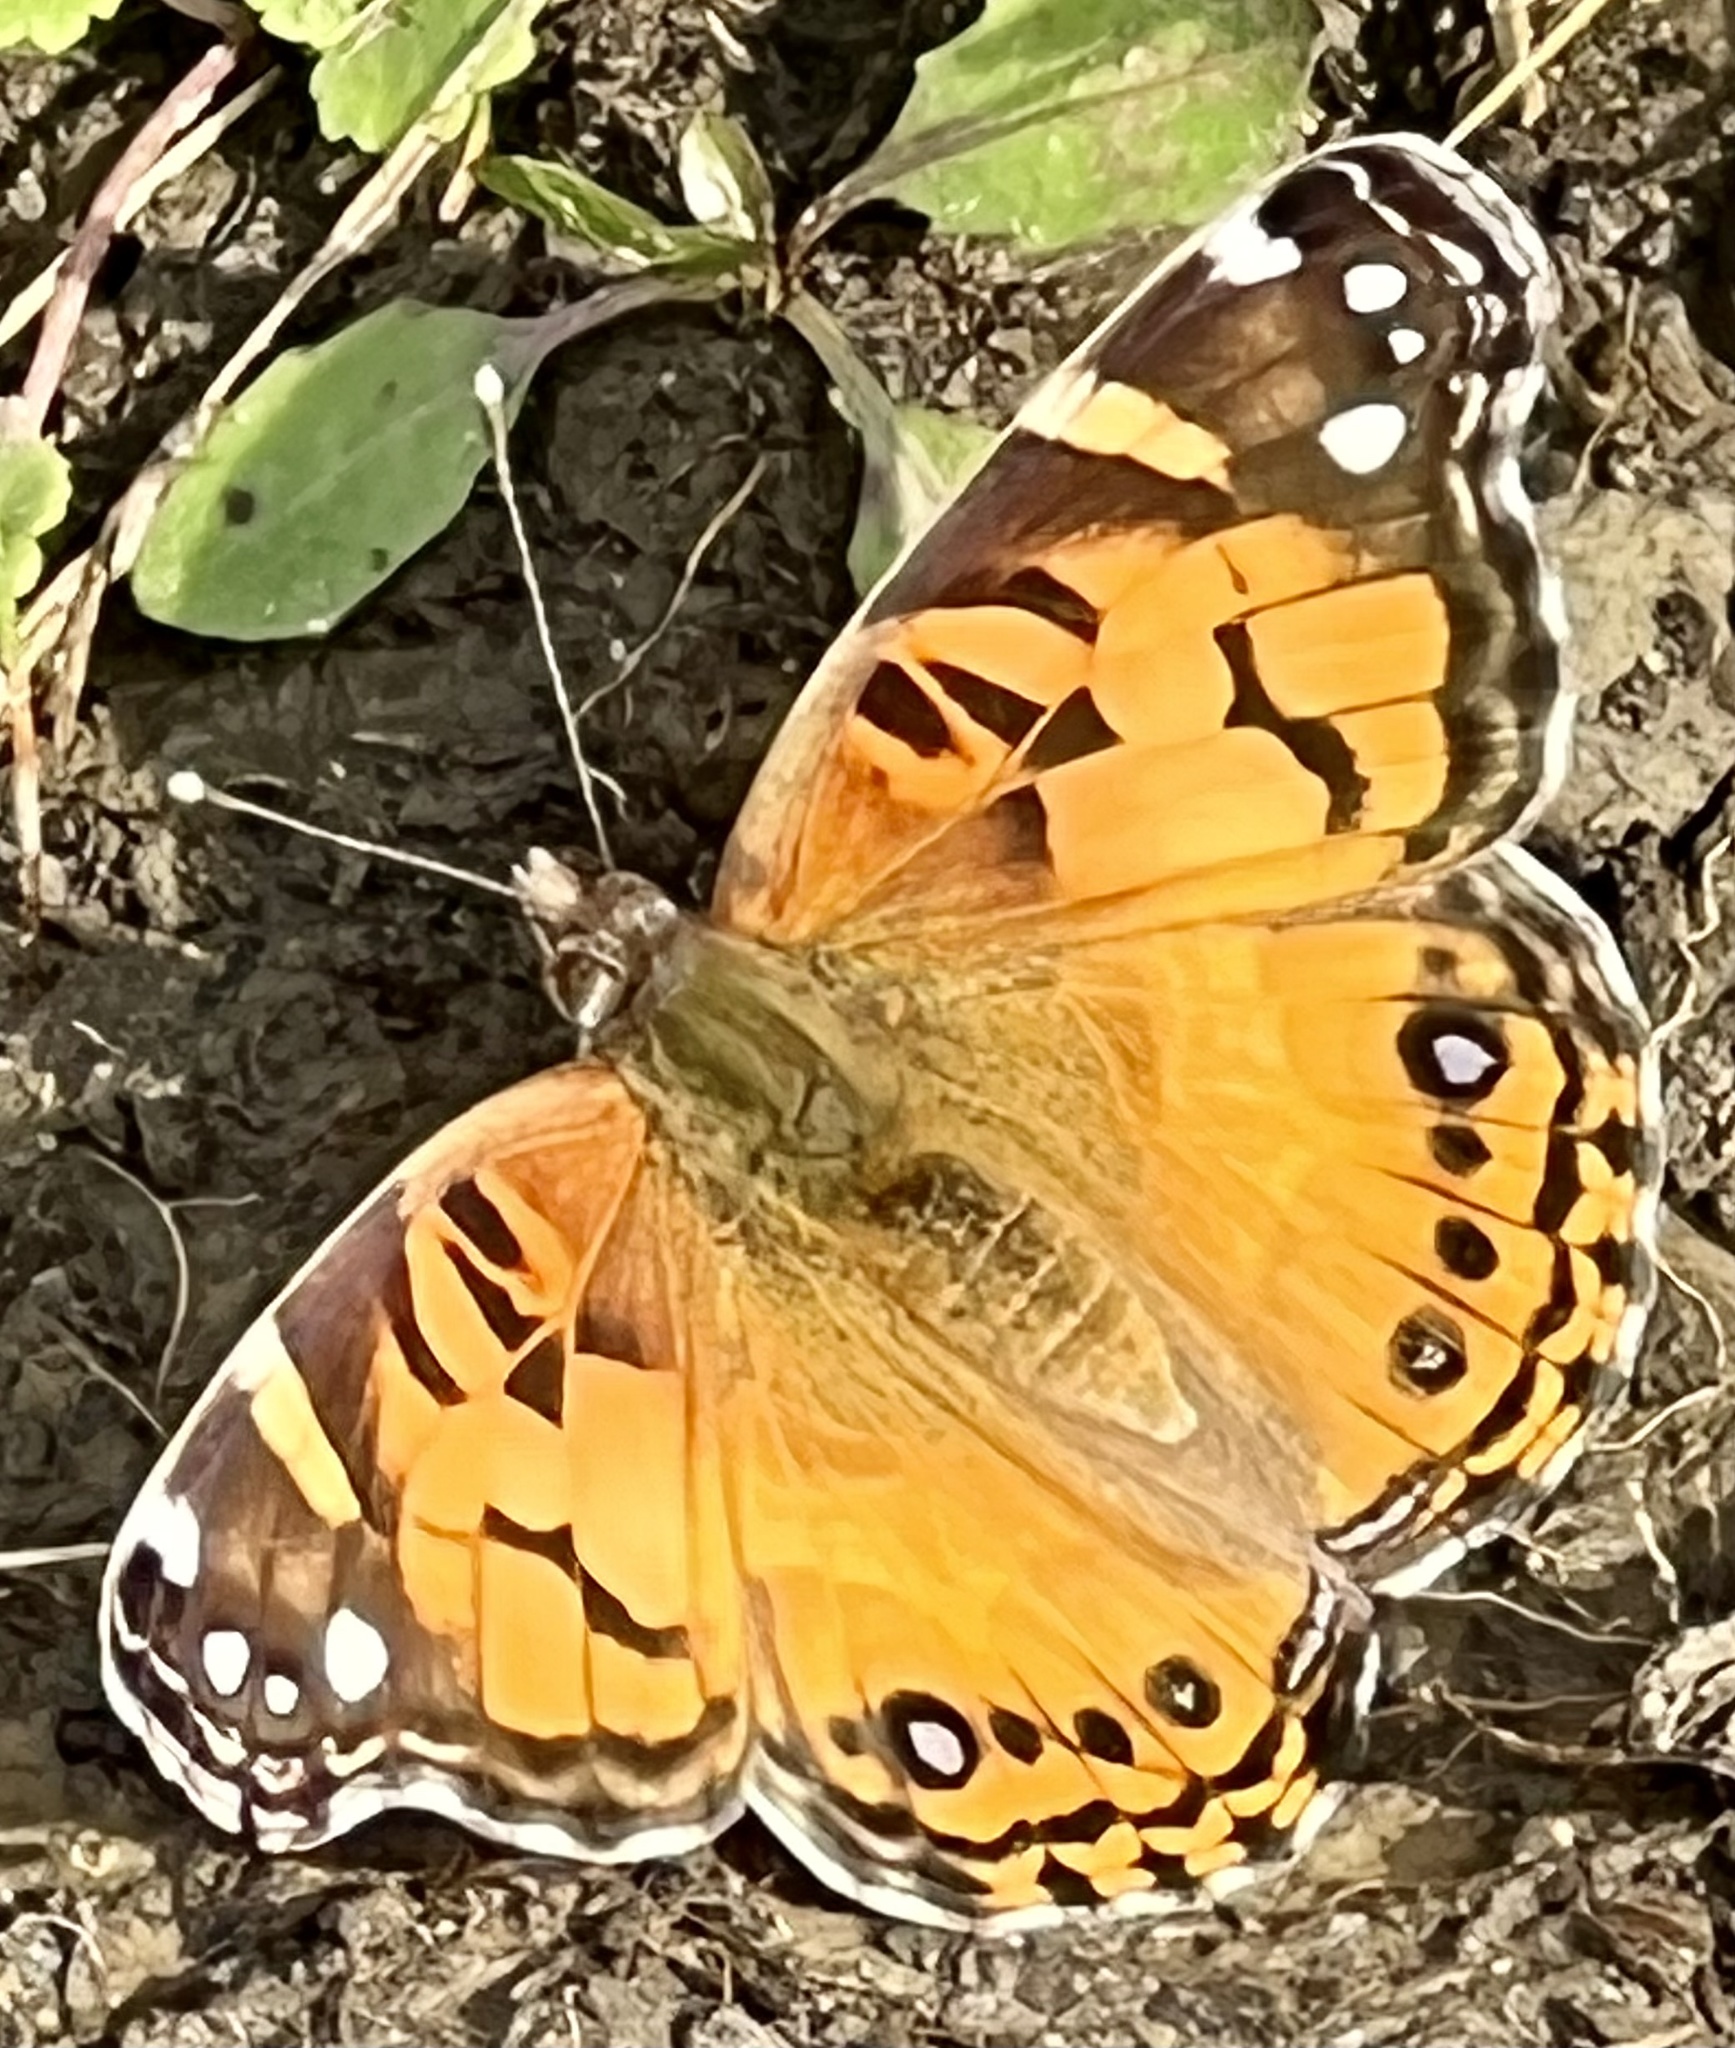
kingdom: Animalia
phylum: Arthropoda
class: Insecta
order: Lepidoptera
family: Nymphalidae
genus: Vanessa
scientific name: Vanessa virginiensis
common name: American lady
